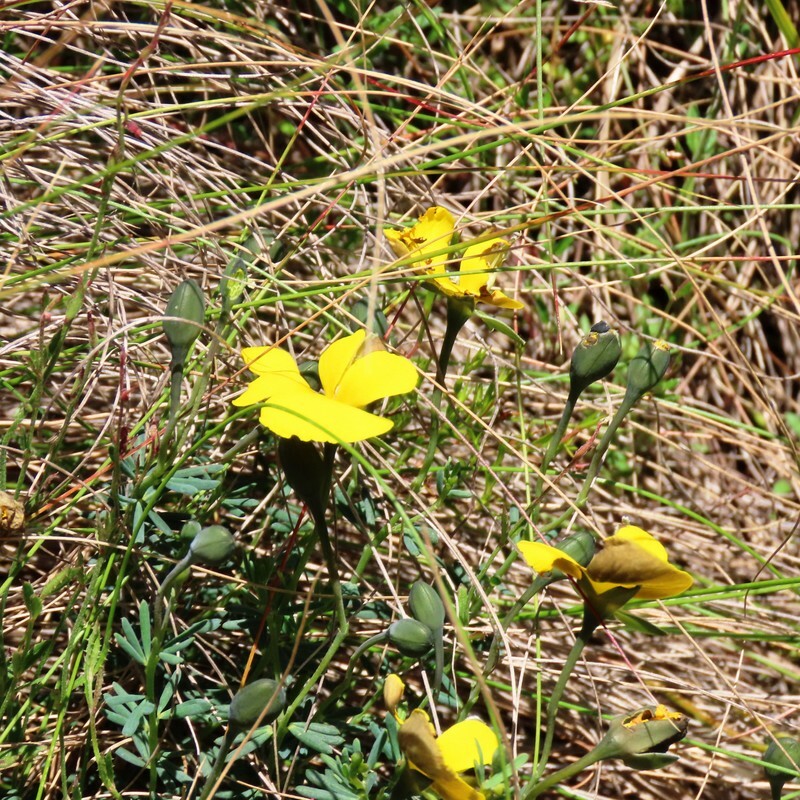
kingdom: Plantae
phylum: Tracheophyta
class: Magnoliopsida
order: Fabales
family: Fabaceae
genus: Gompholobium
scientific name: Gompholobium huegelii
